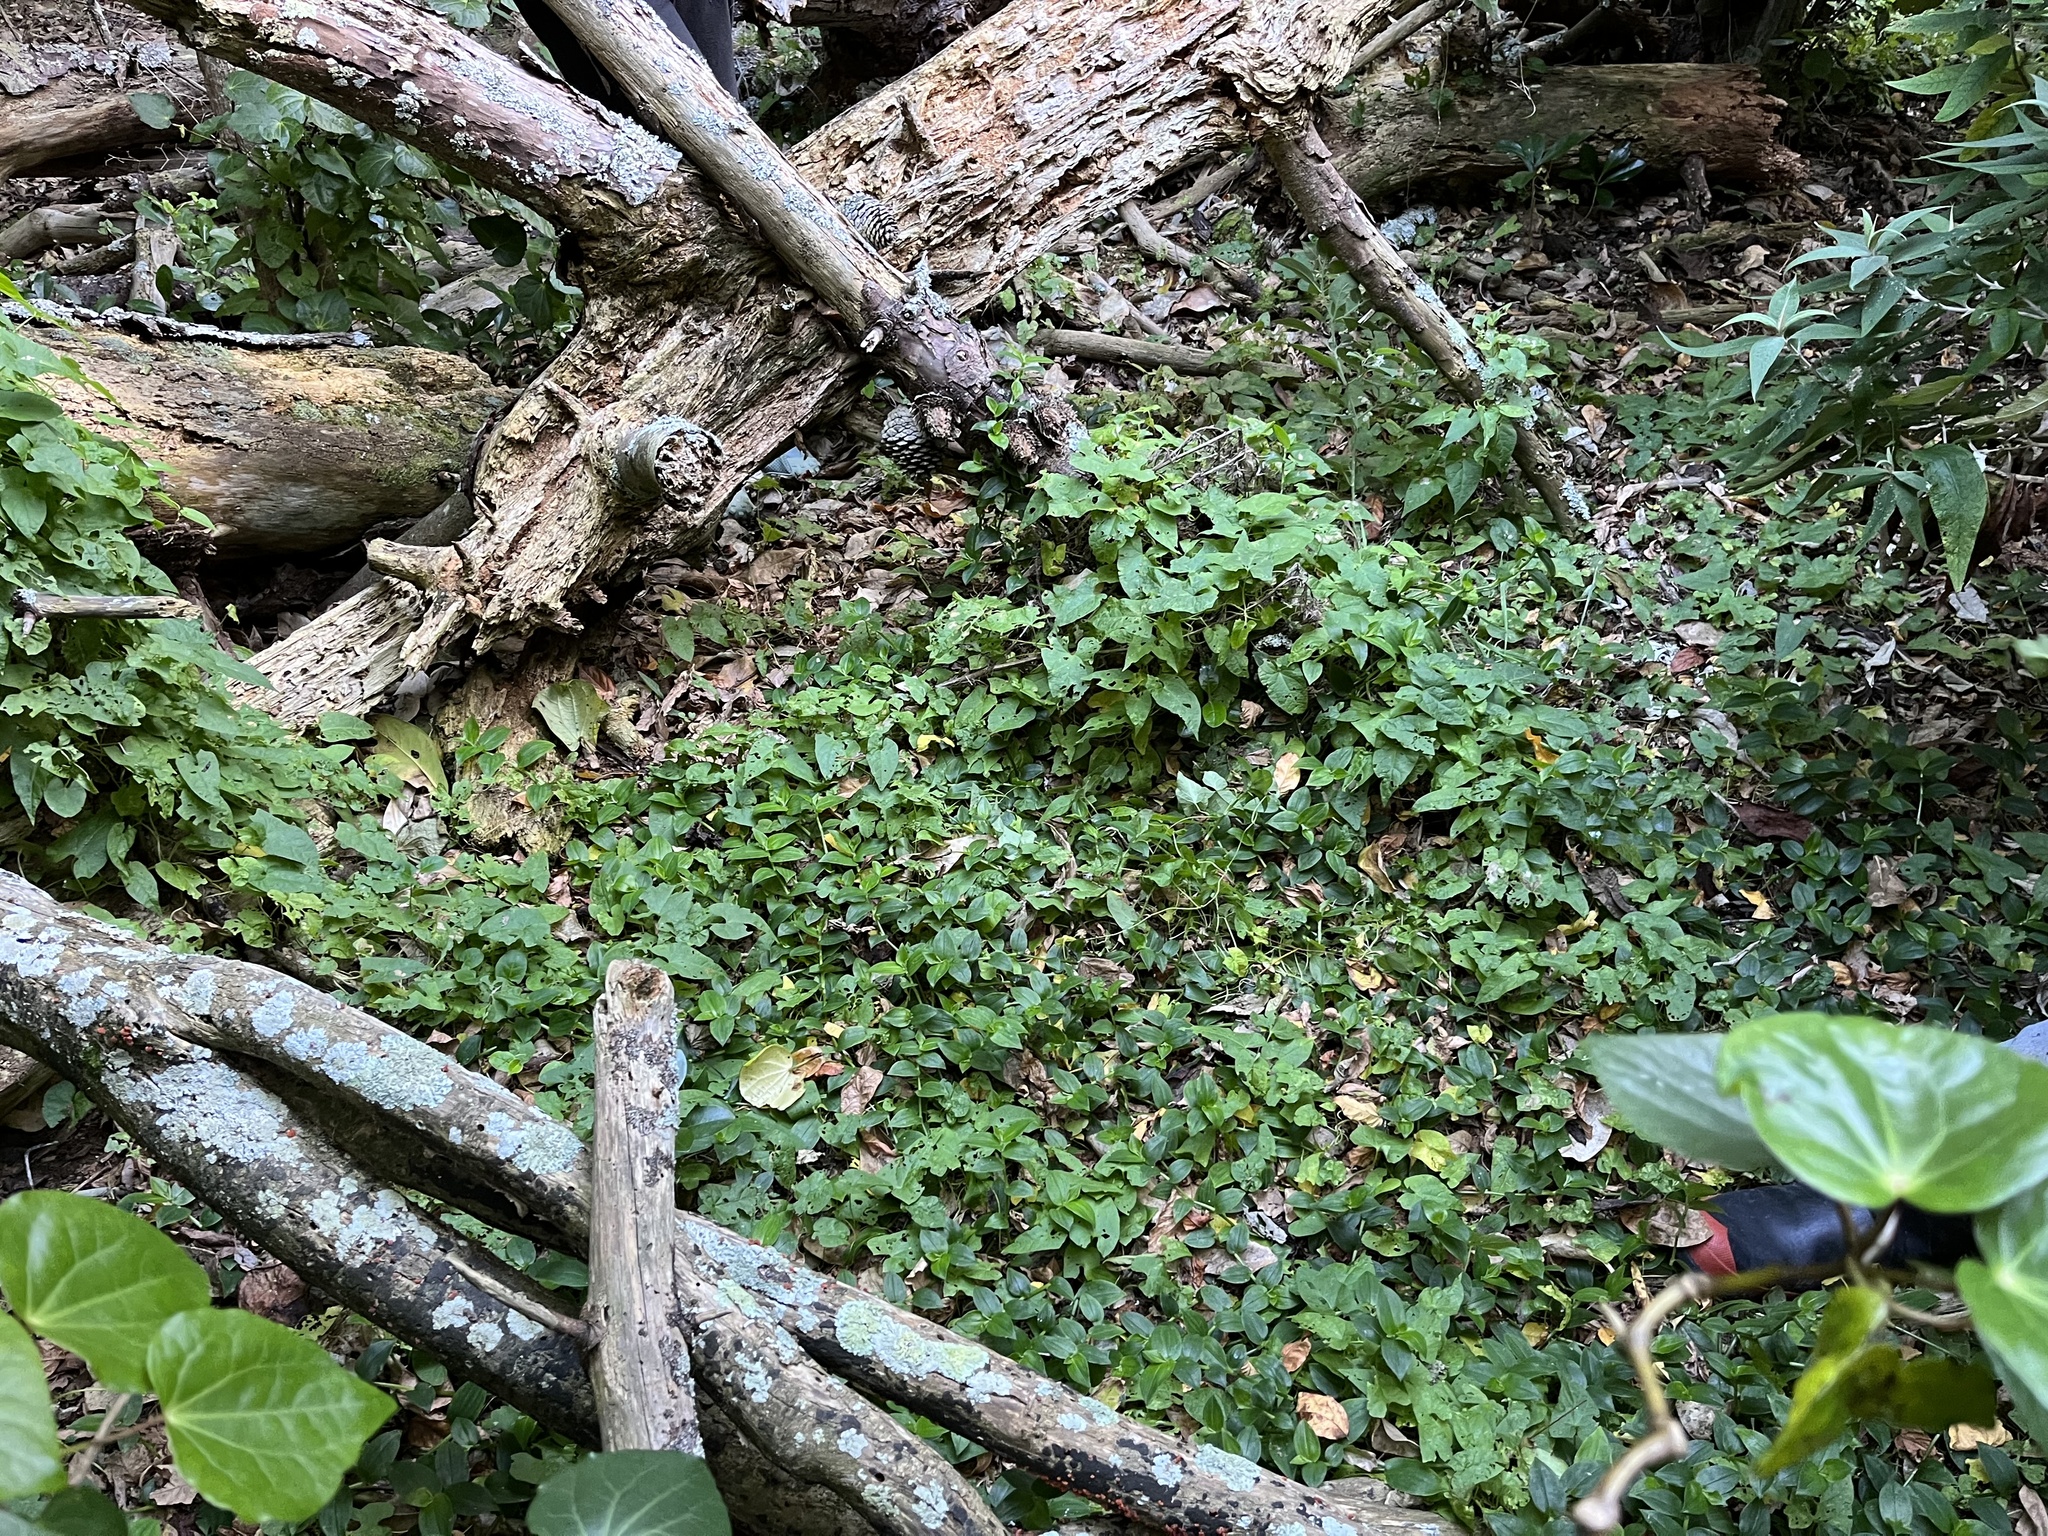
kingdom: Plantae
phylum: Tracheophyta
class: Liliopsida
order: Commelinales
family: Commelinaceae
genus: Tradescantia
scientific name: Tradescantia fluminensis
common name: Wandering-jew
